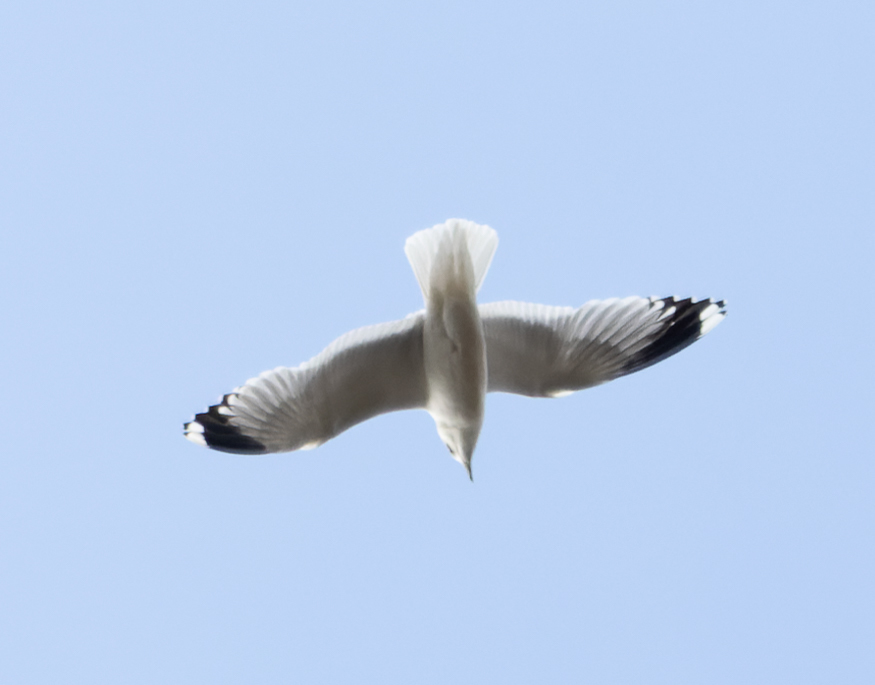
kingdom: Animalia
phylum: Chordata
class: Aves
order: Charadriiformes
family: Laridae
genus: Larus
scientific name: Larus canus
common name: Mew gull
